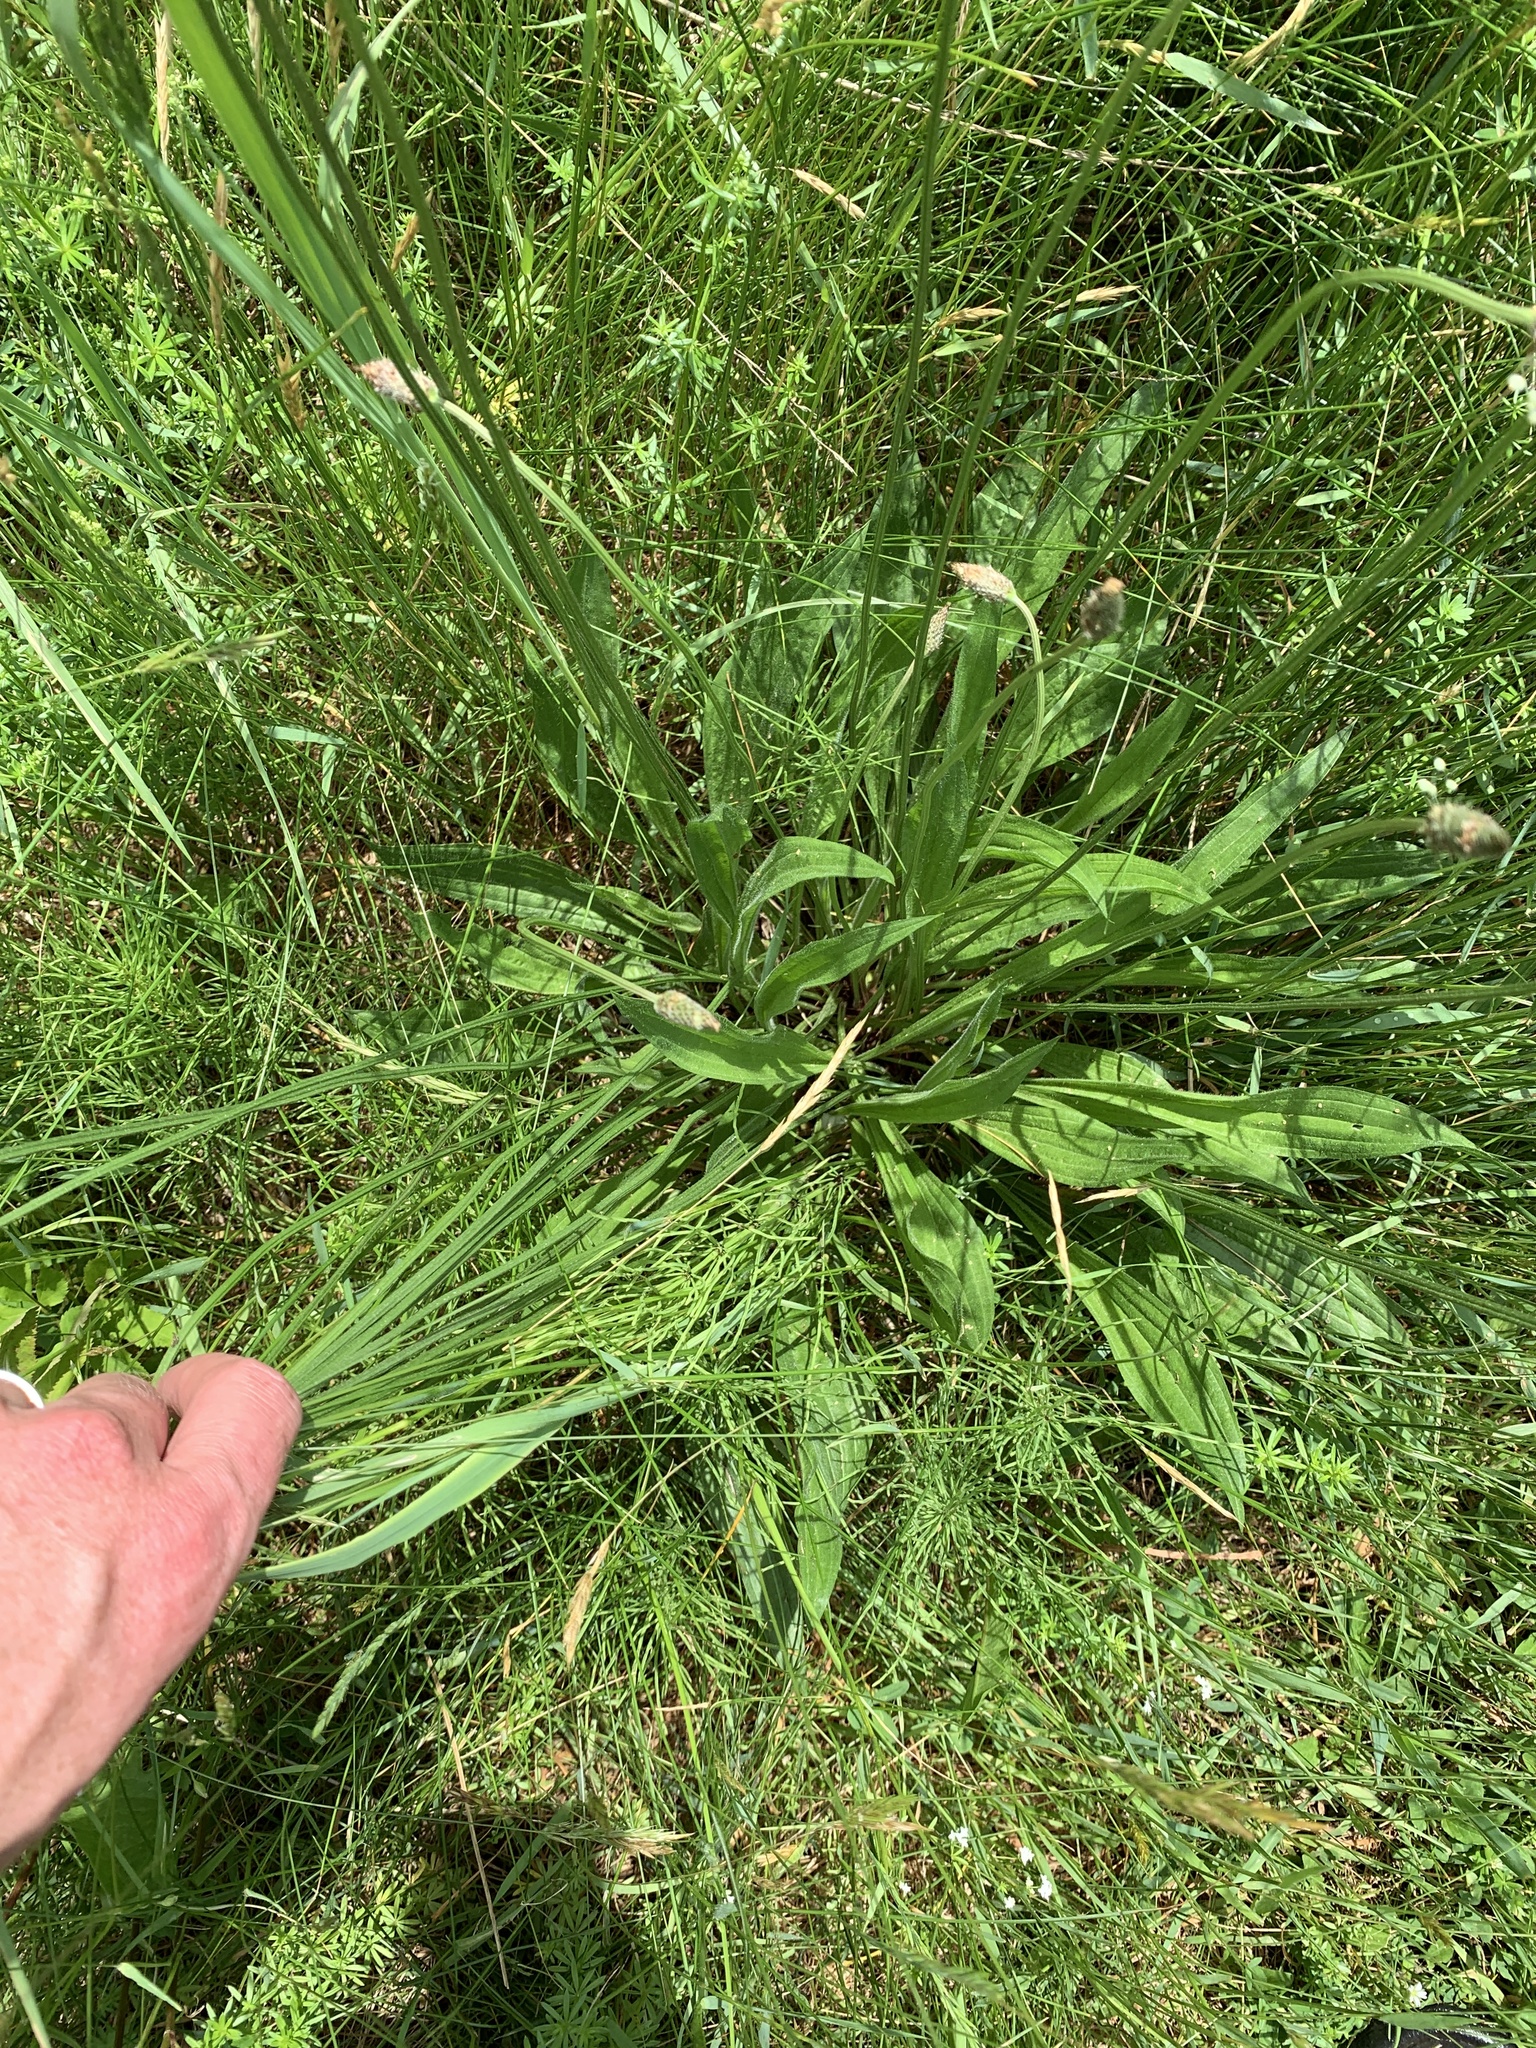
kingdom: Plantae
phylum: Tracheophyta
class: Magnoliopsida
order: Lamiales
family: Plantaginaceae
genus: Plantago
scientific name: Plantago lanceolata
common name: Ribwort plantain
